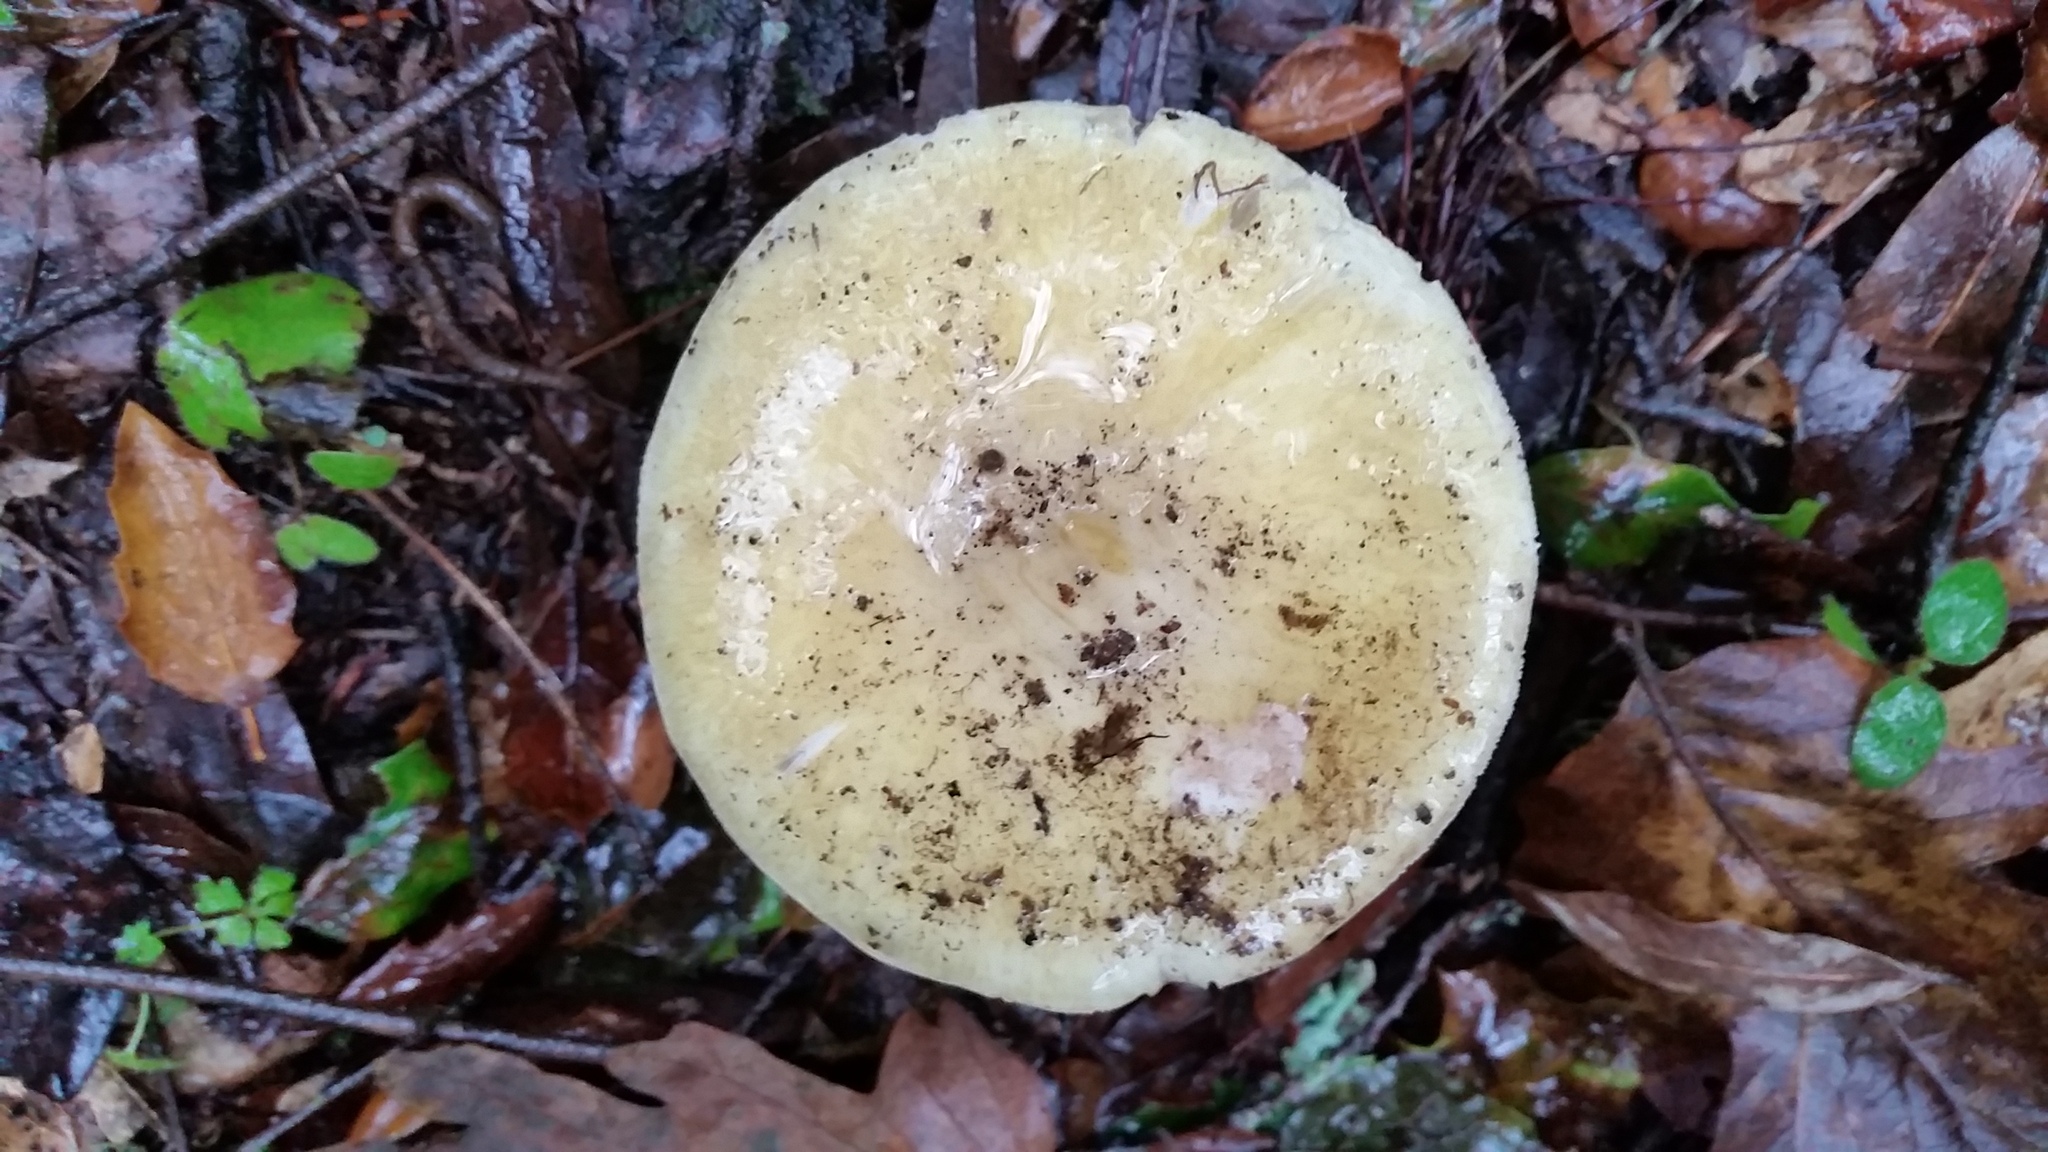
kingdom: Fungi
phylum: Basidiomycota
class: Agaricomycetes
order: Agaricales
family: Amanitaceae
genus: Amanita
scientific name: Amanita phalloides
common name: Death cap
